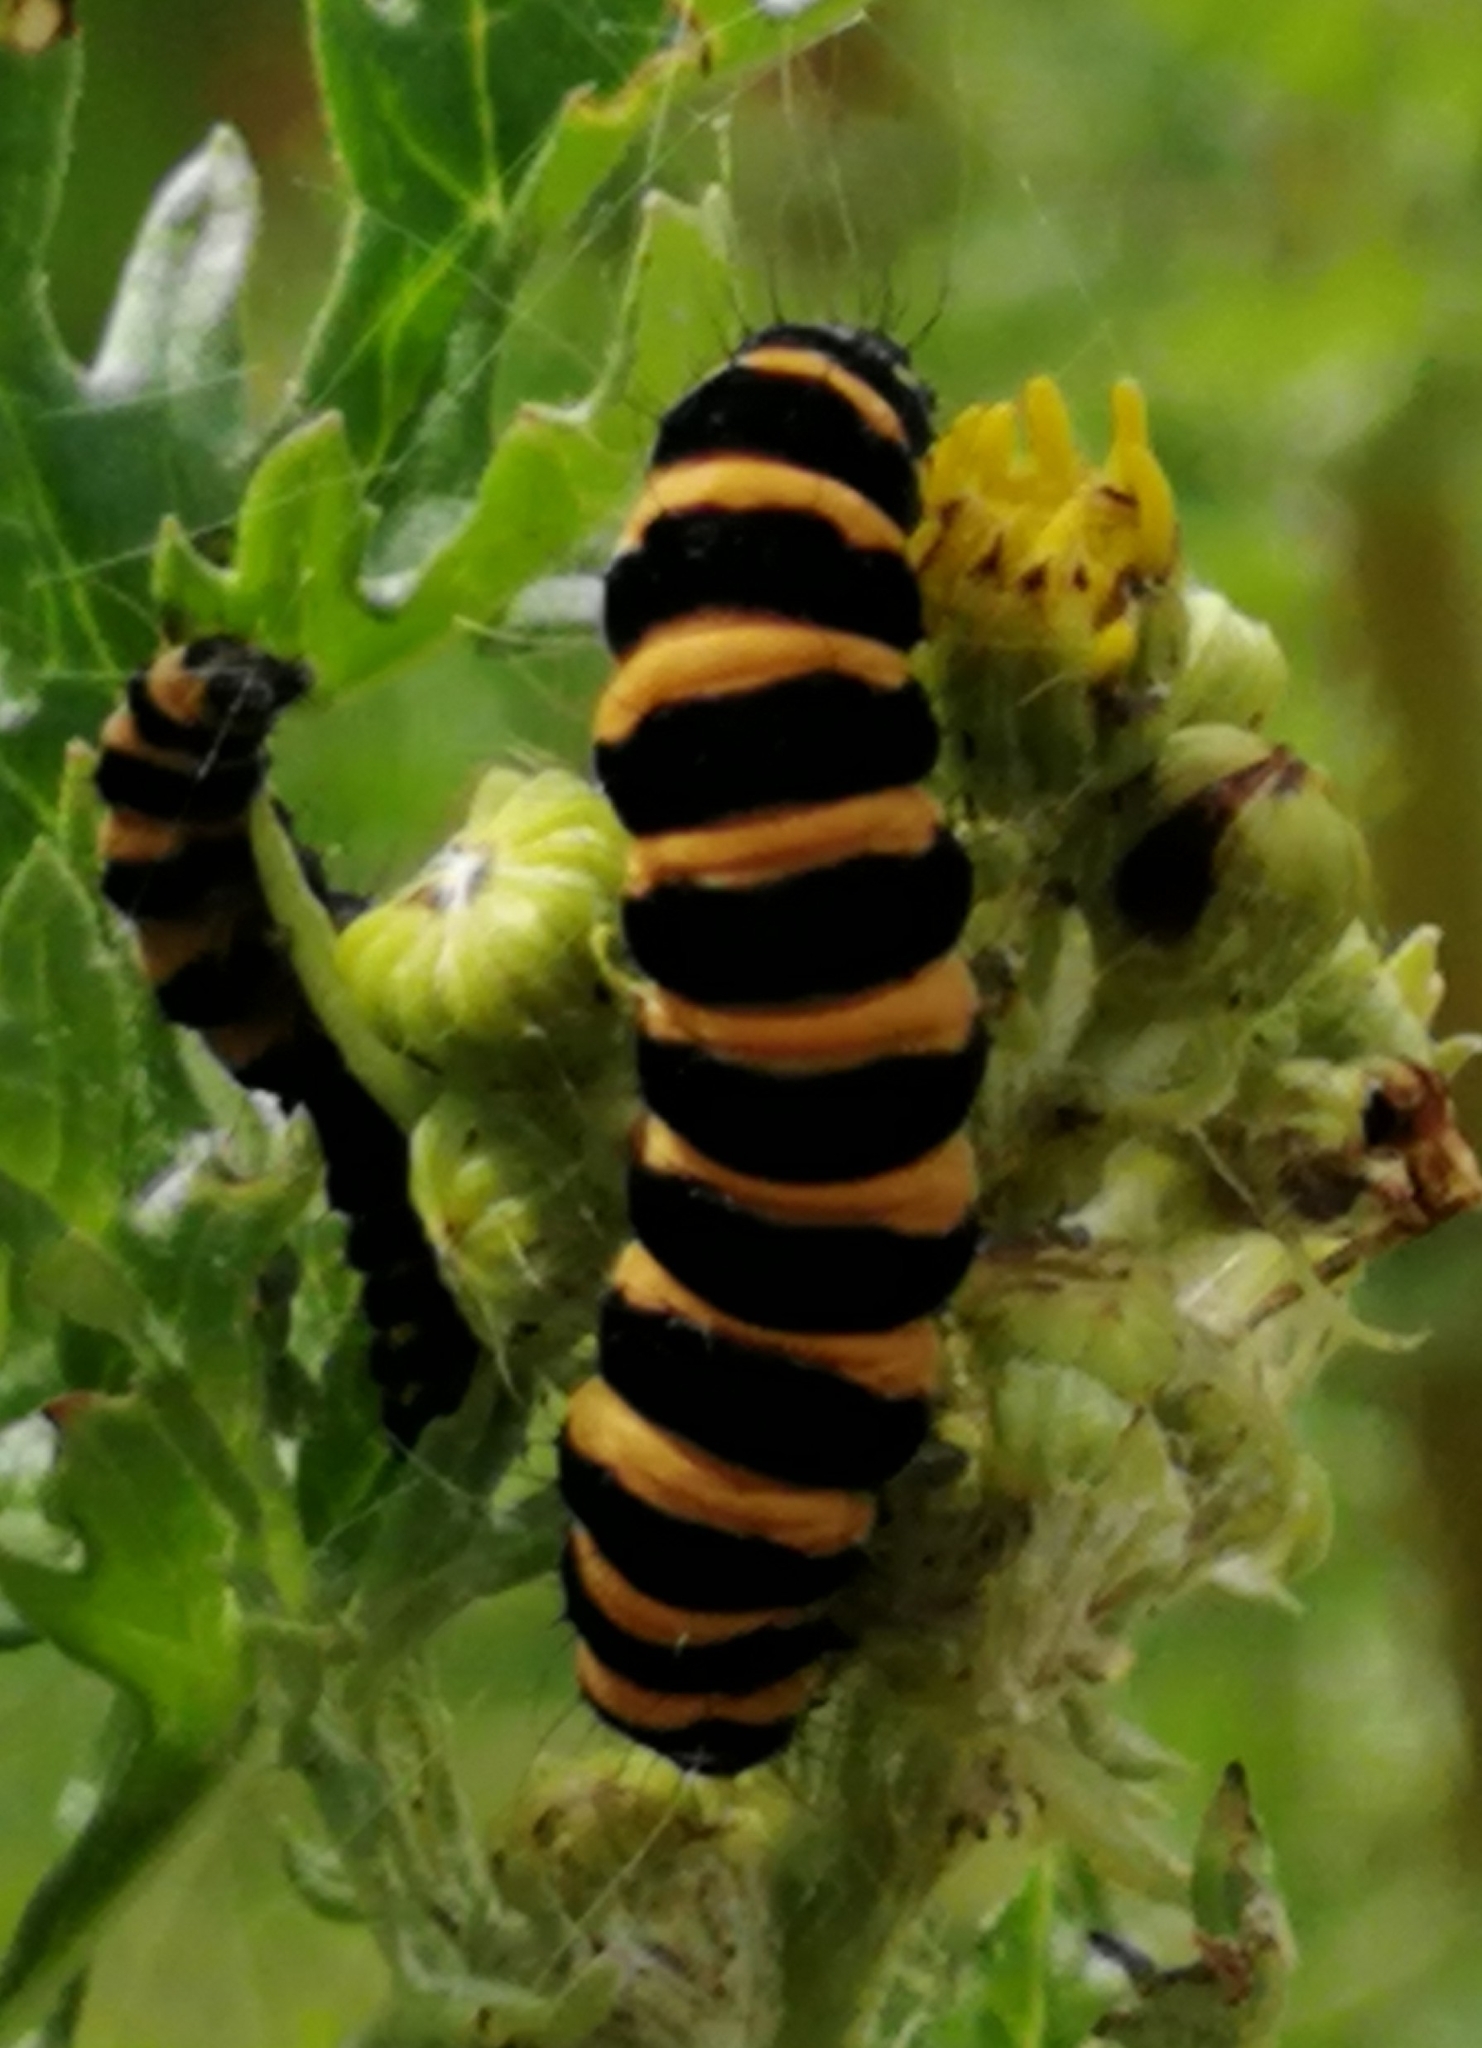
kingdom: Animalia
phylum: Arthropoda
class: Insecta
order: Lepidoptera
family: Erebidae
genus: Tyria
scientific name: Tyria jacobaeae
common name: Cinnabar
